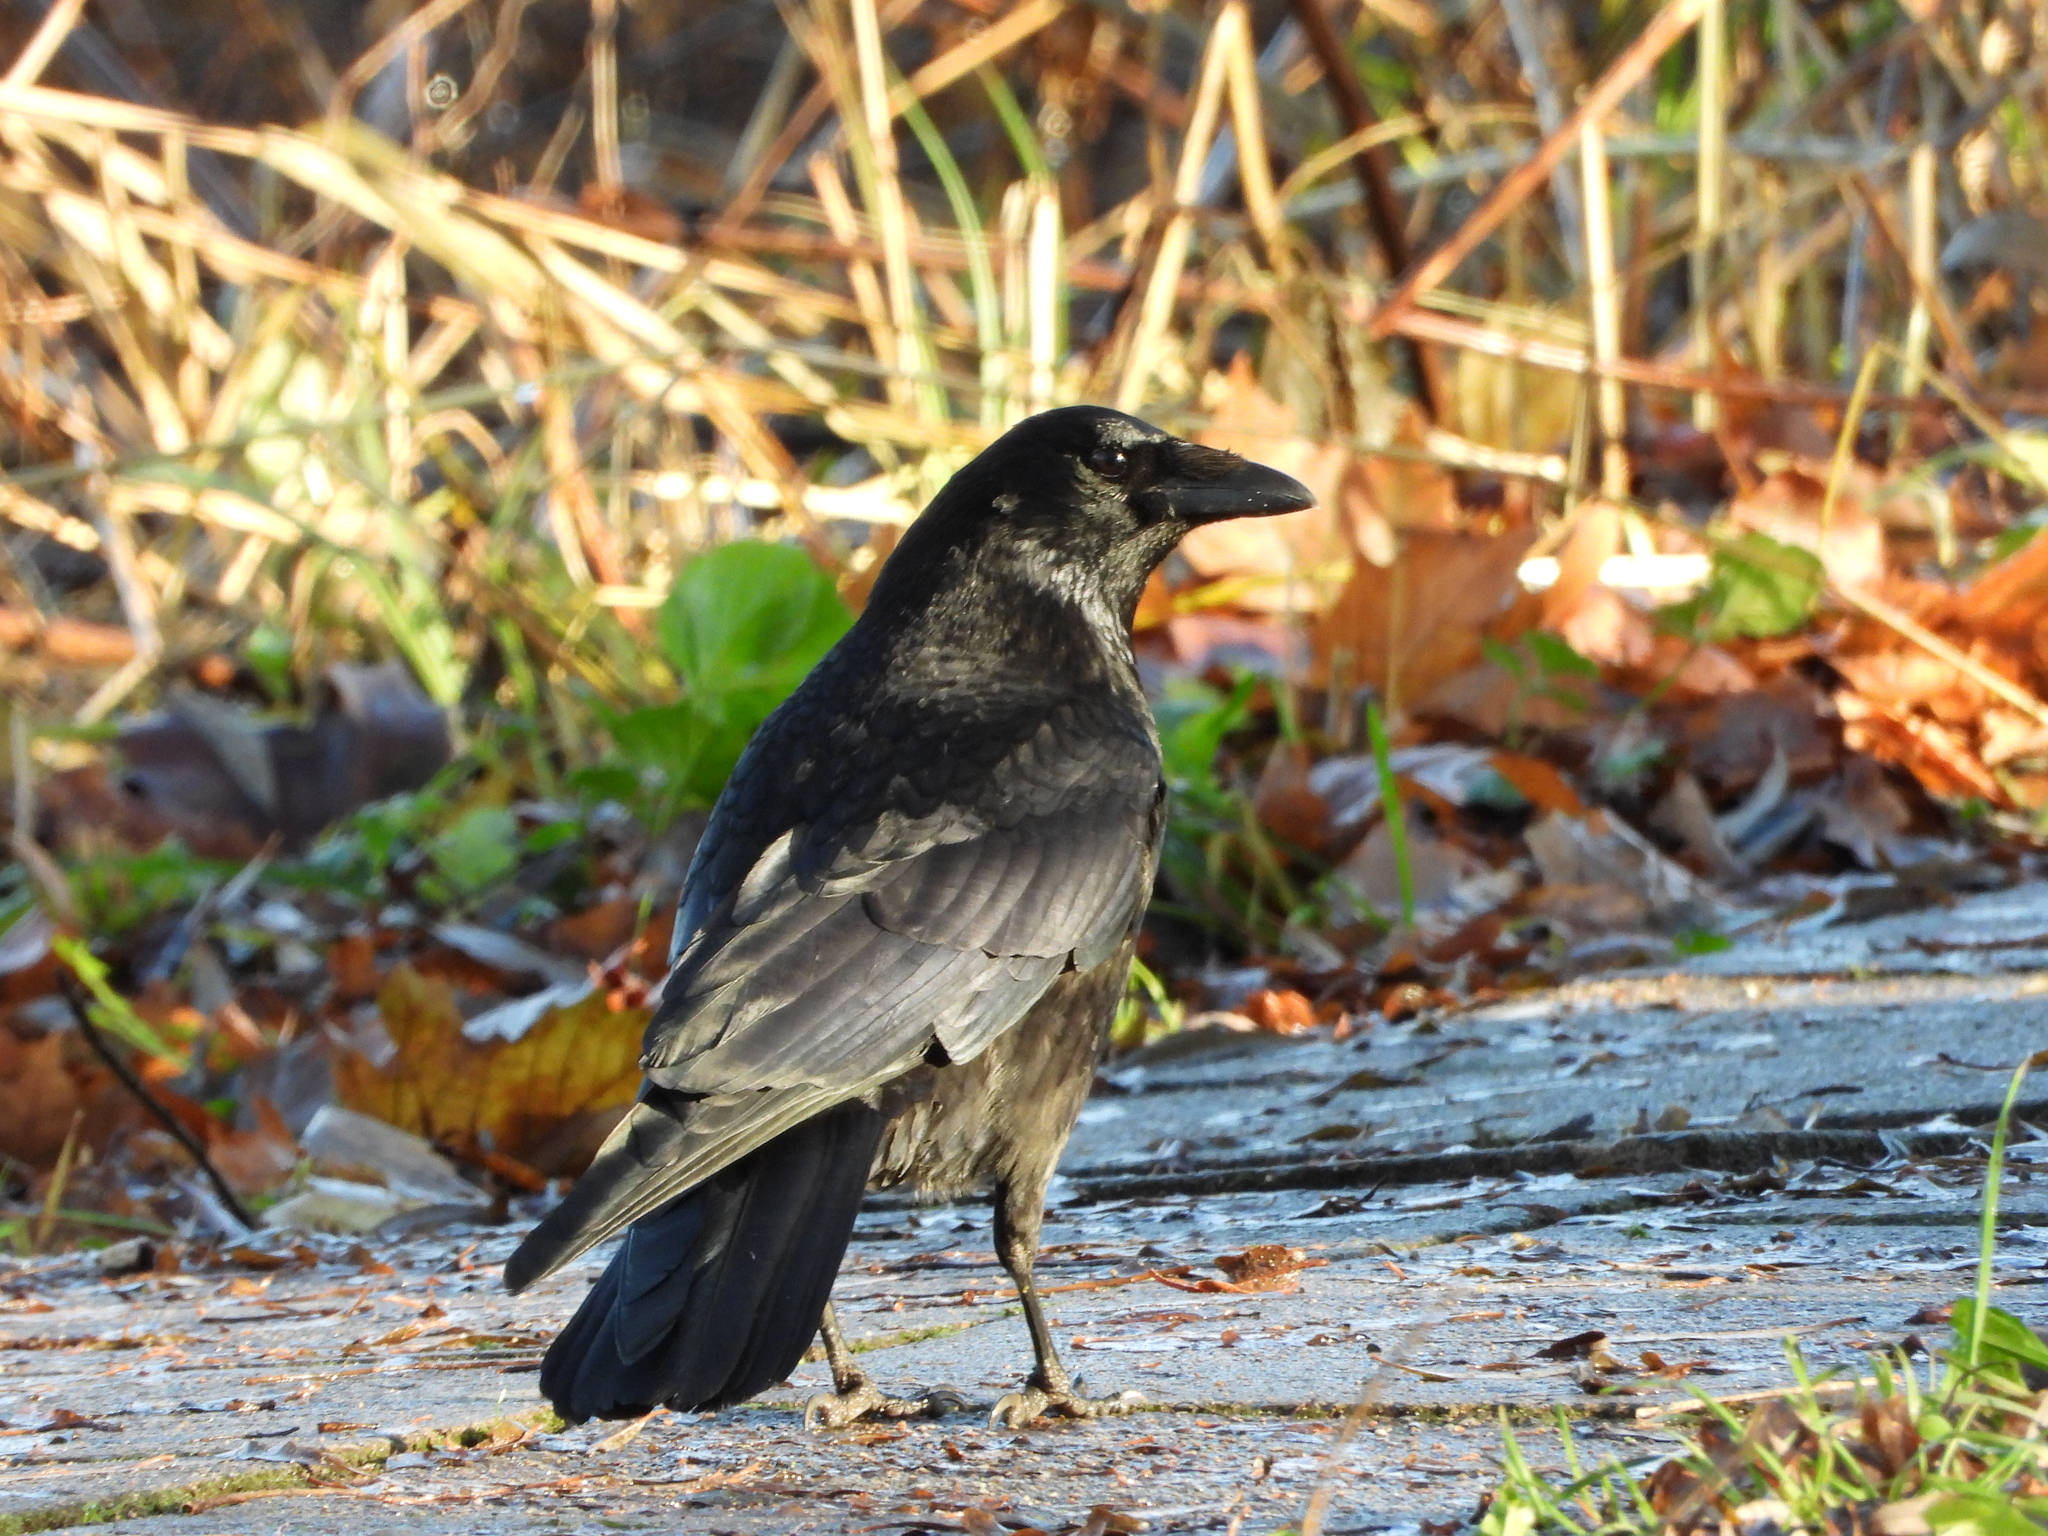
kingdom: Animalia
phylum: Chordata
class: Aves
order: Passeriformes
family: Corvidae
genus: Corvus
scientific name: Corvus corone
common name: Carrion crow
